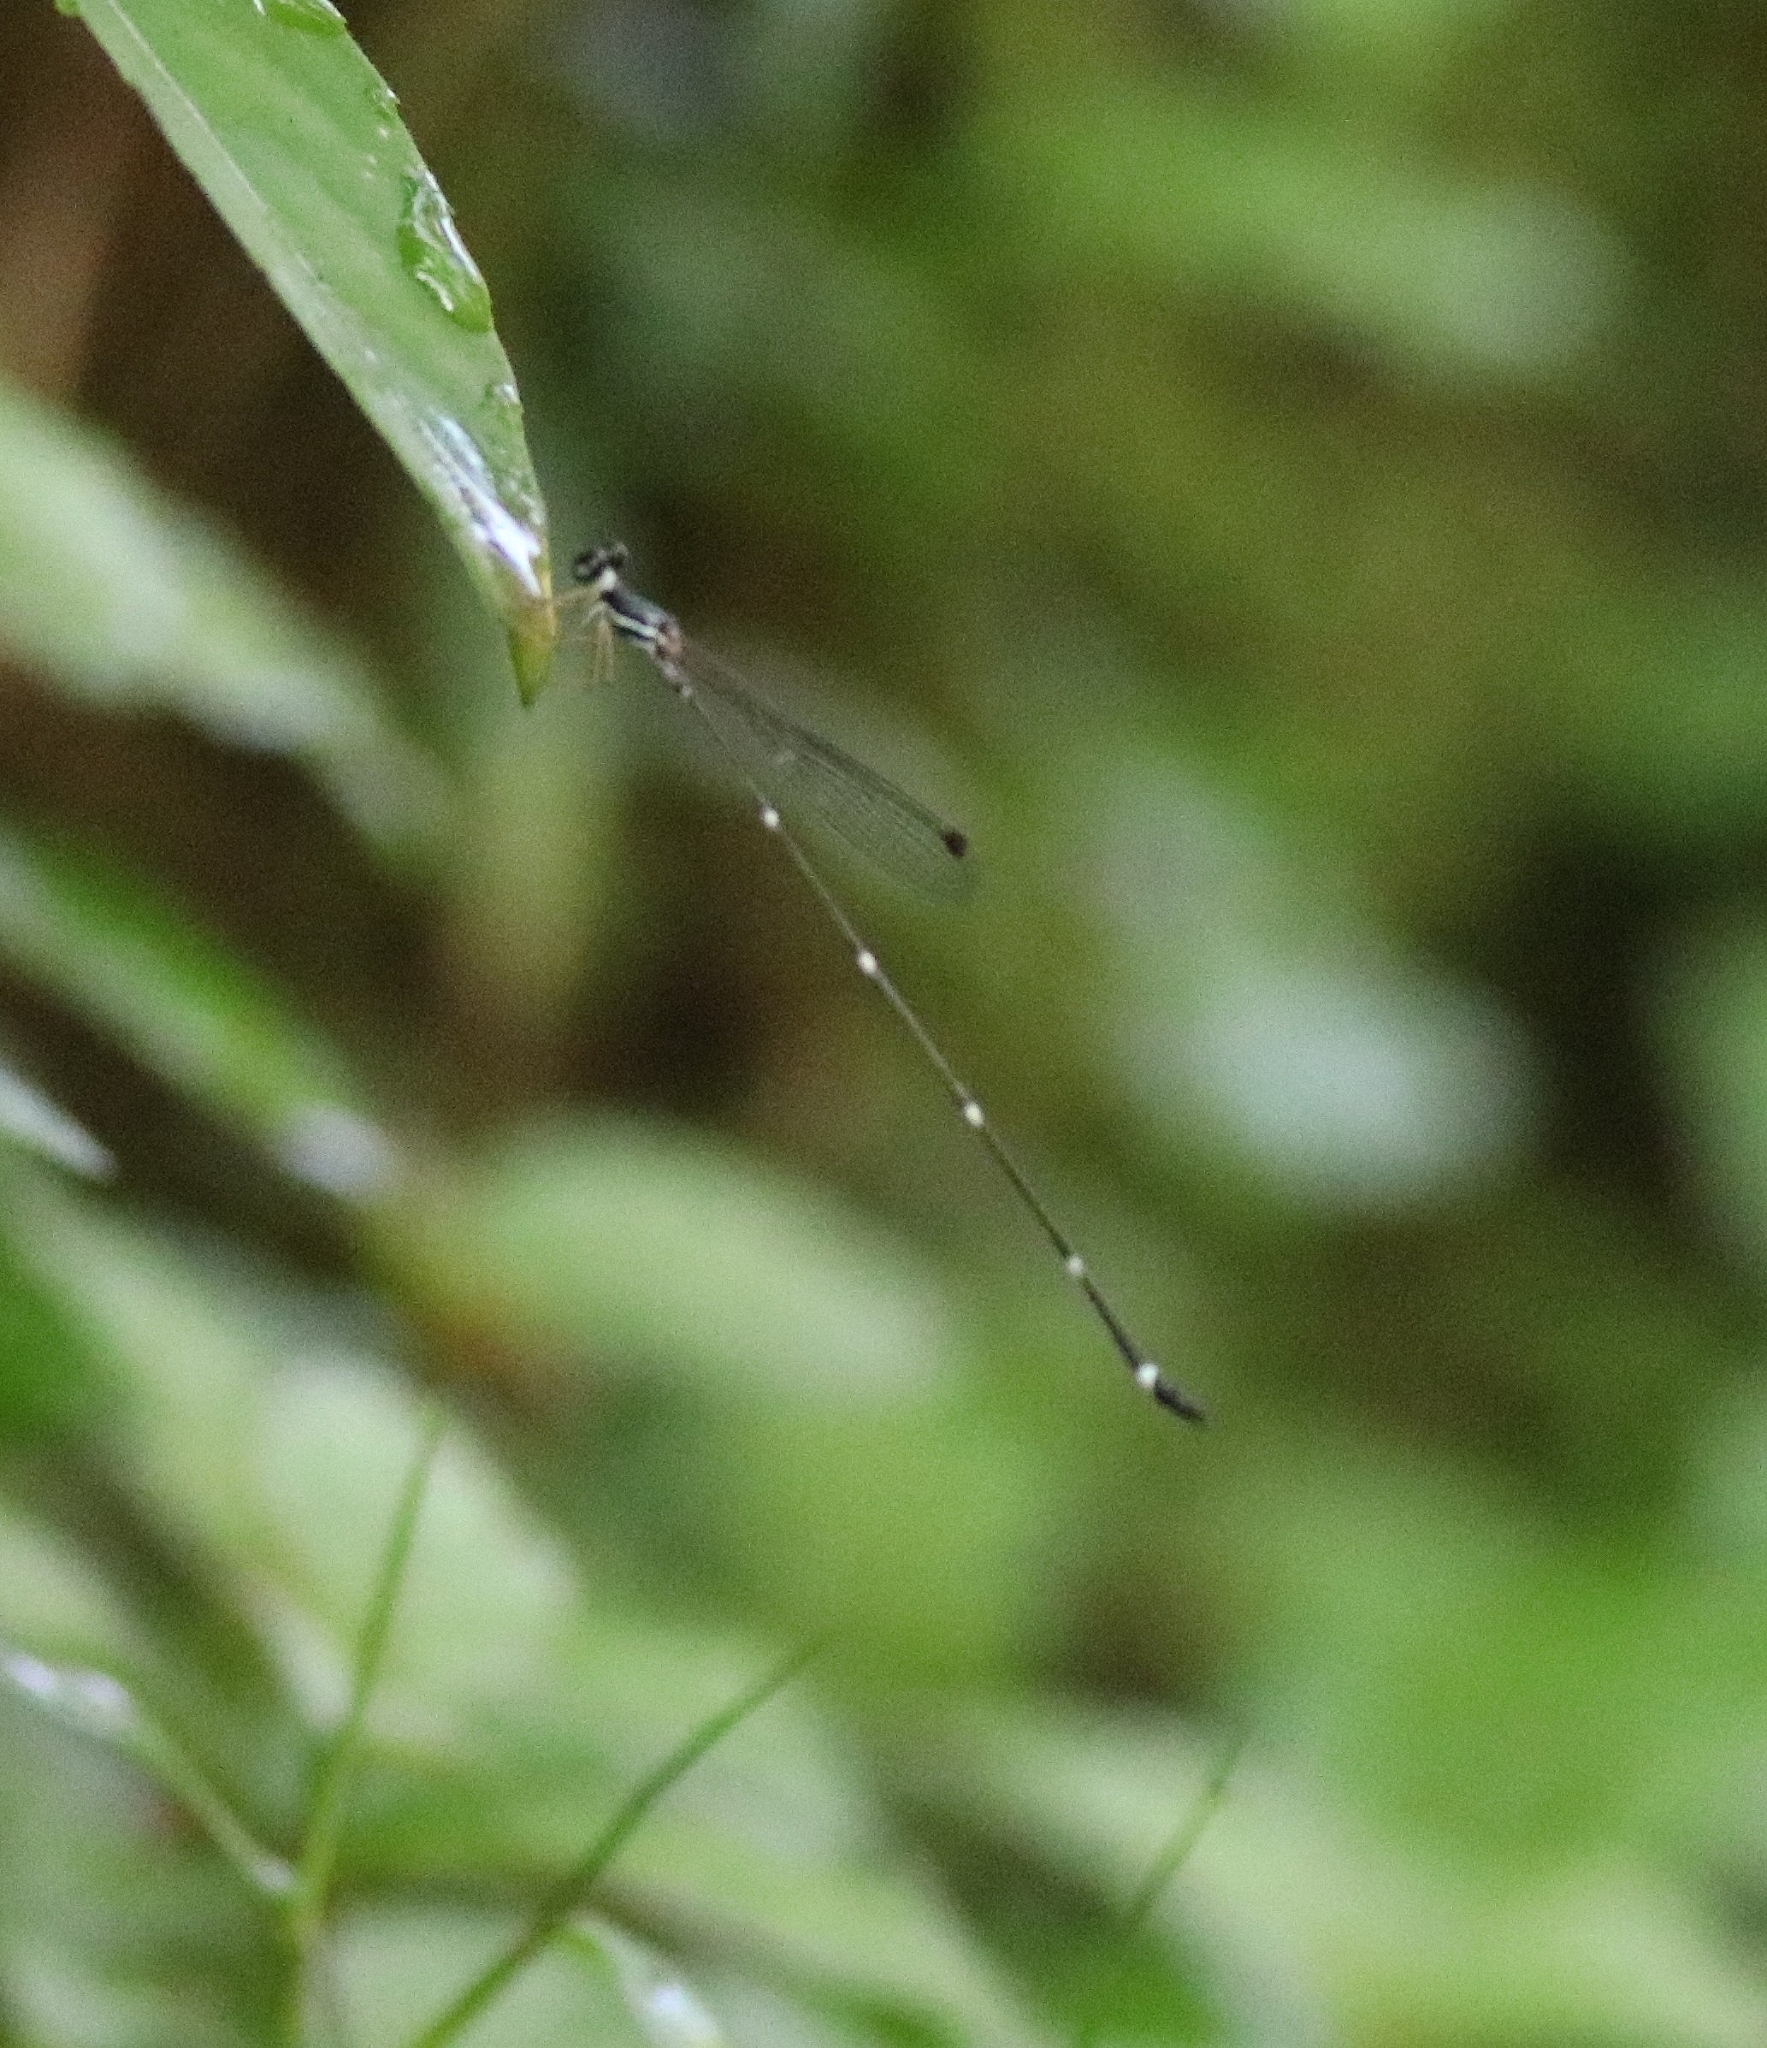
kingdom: Animalia
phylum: Arthropoda
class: Insecta
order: Odonata
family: Platystictidae
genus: Protosticta
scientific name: Protosticta gravelyi
